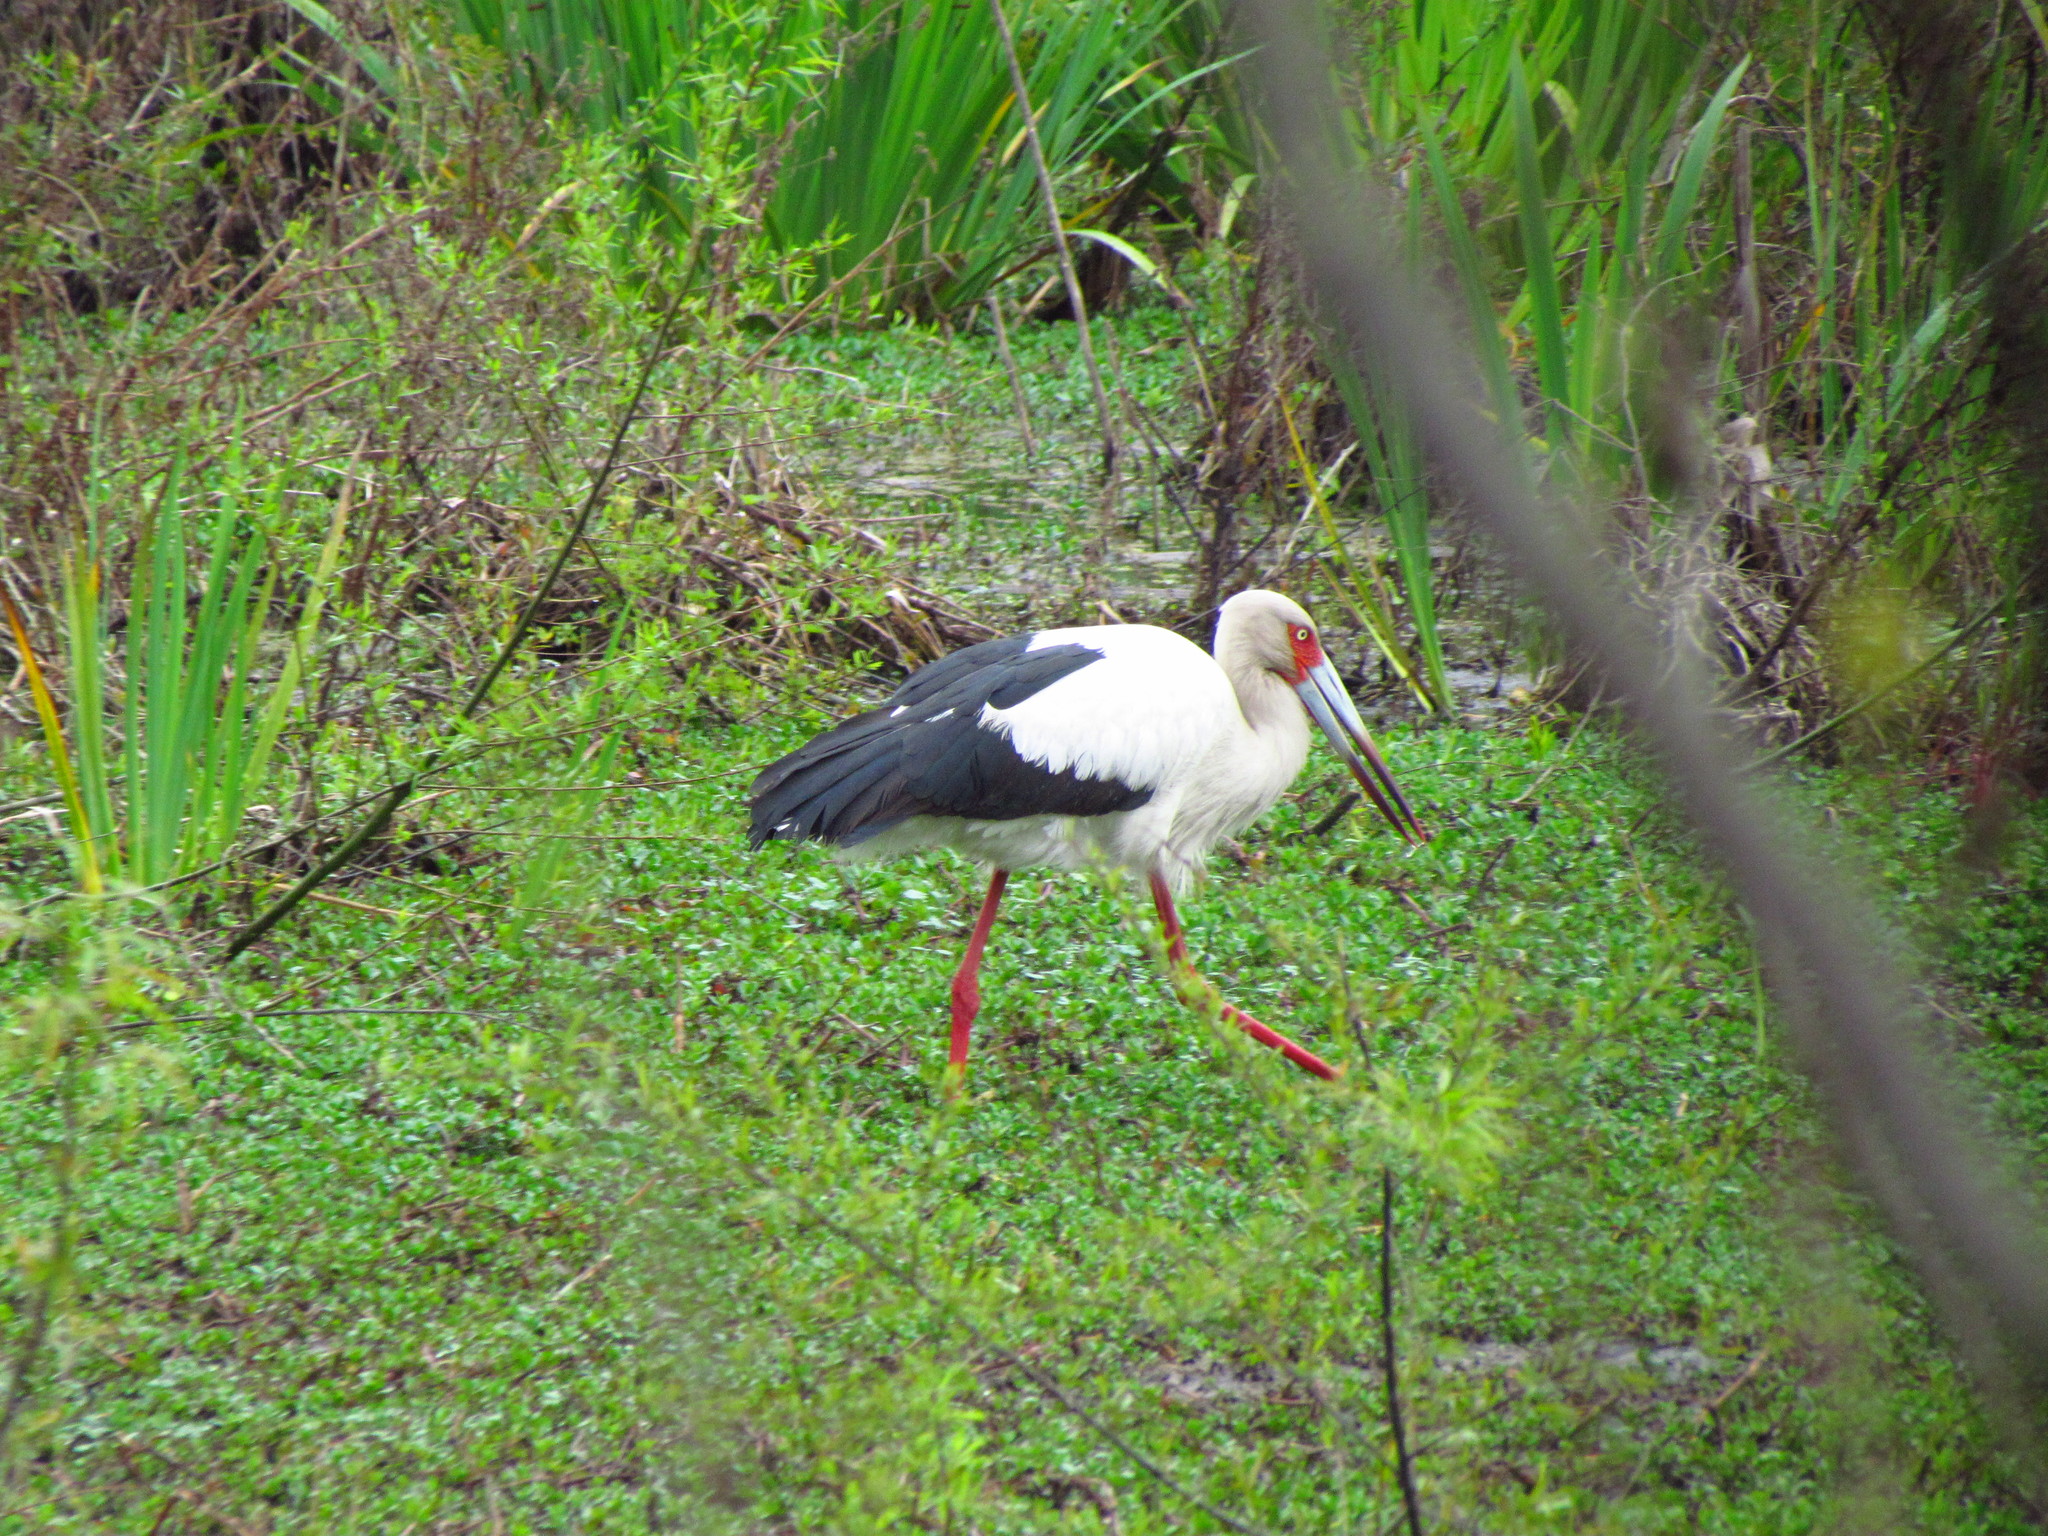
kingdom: Animalia
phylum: Chordata
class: Aves
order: Ciconiiformes
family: Ciconiidae
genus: Ciconia
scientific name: Ciconia maguari
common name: Maguari stork
